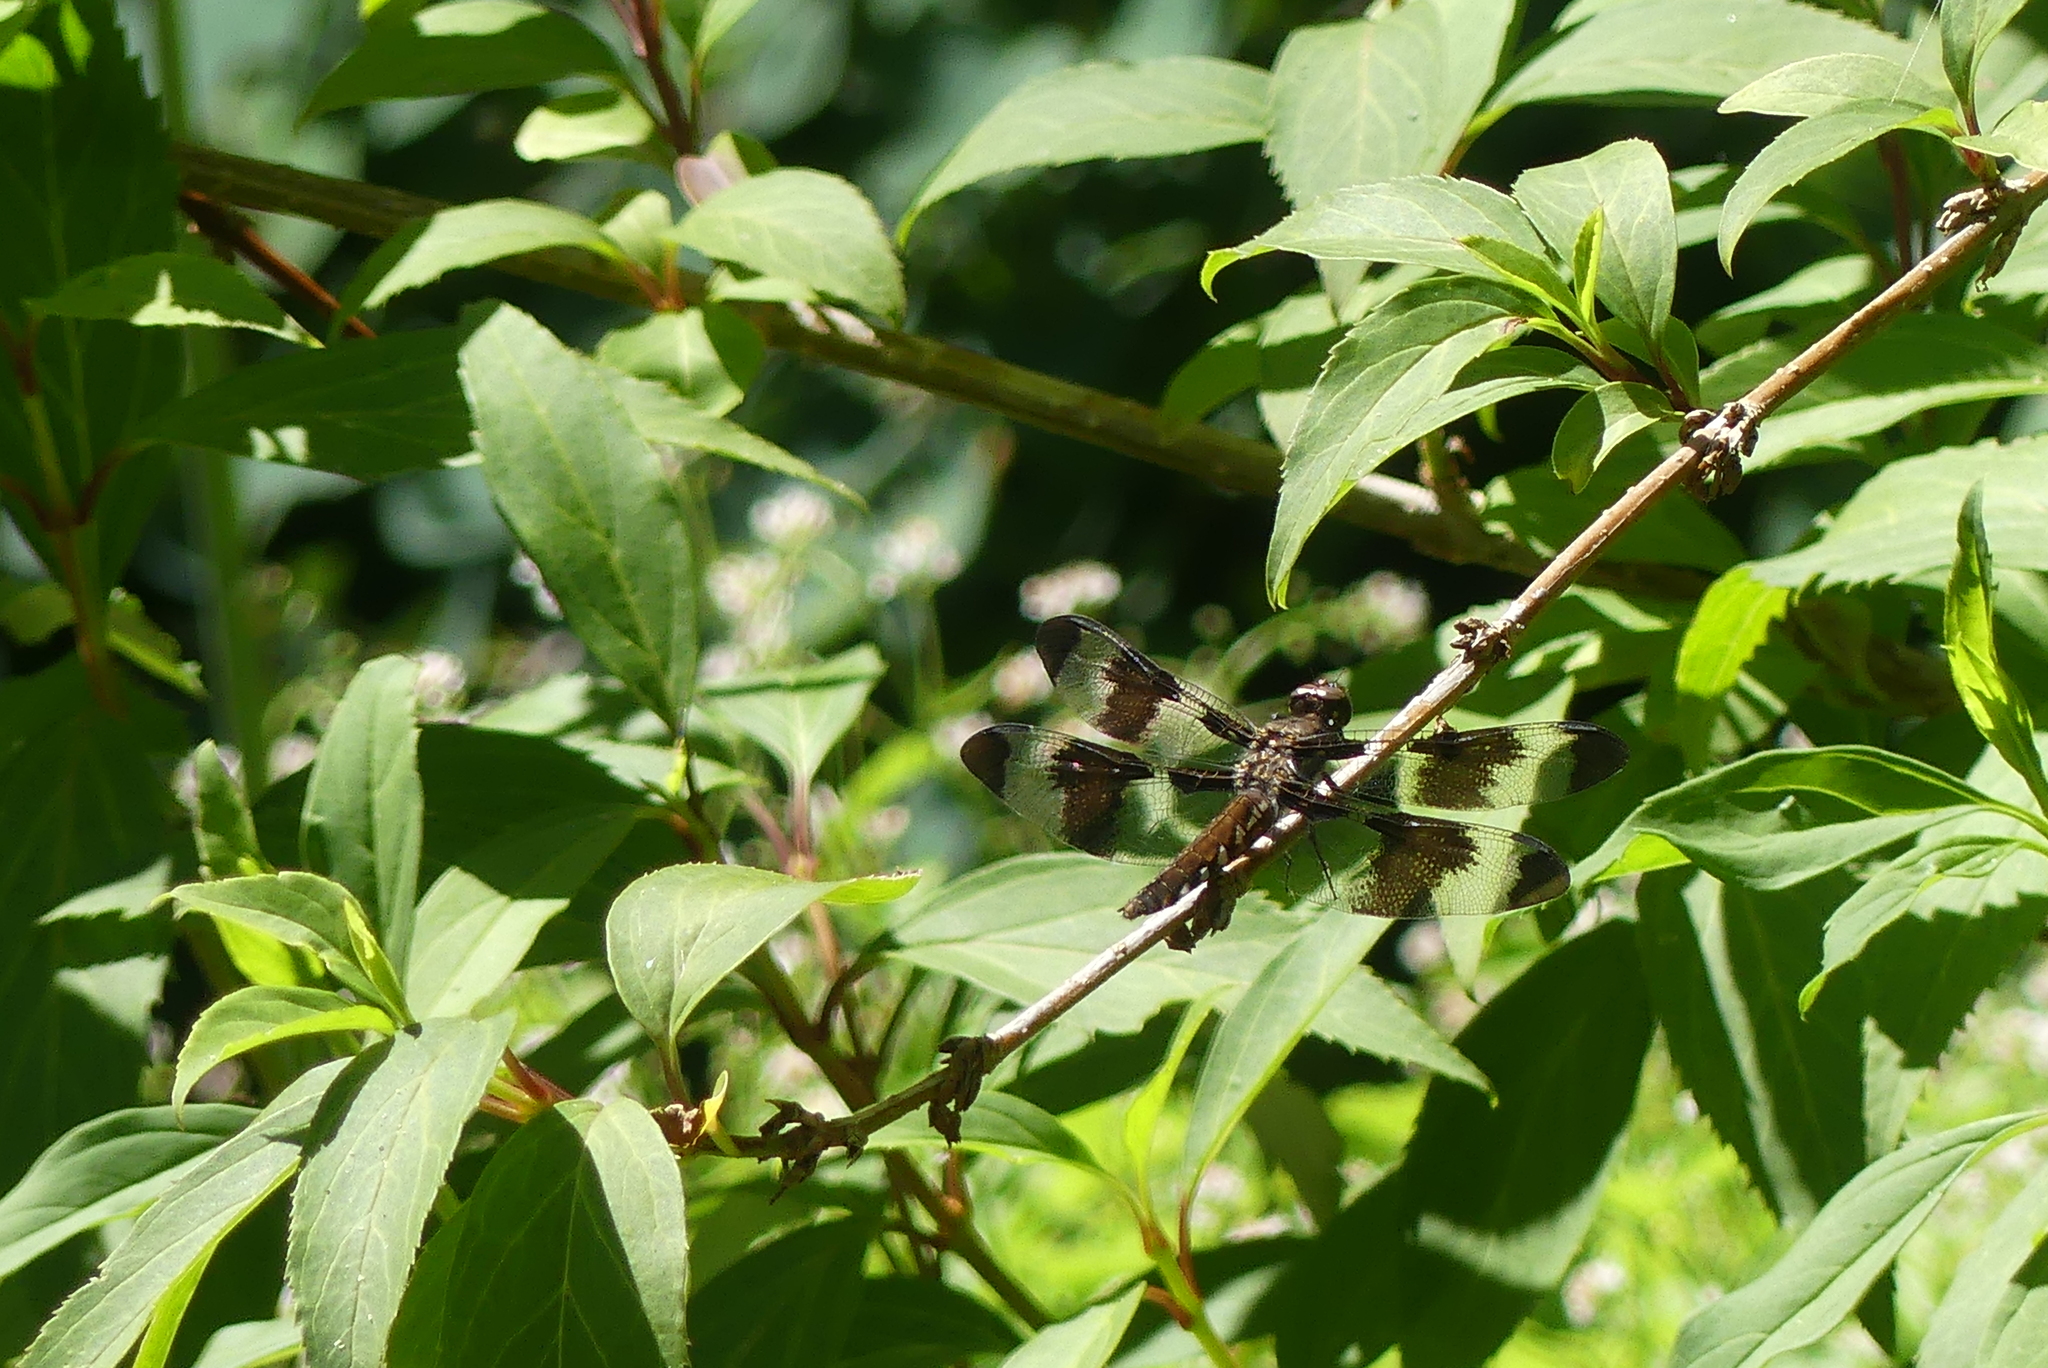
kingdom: Animalia
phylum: Arthropoda
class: Insecta
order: Odonata
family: Libellulidae
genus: Plathemis
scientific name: Plathemis lydia
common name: Common whitetail
